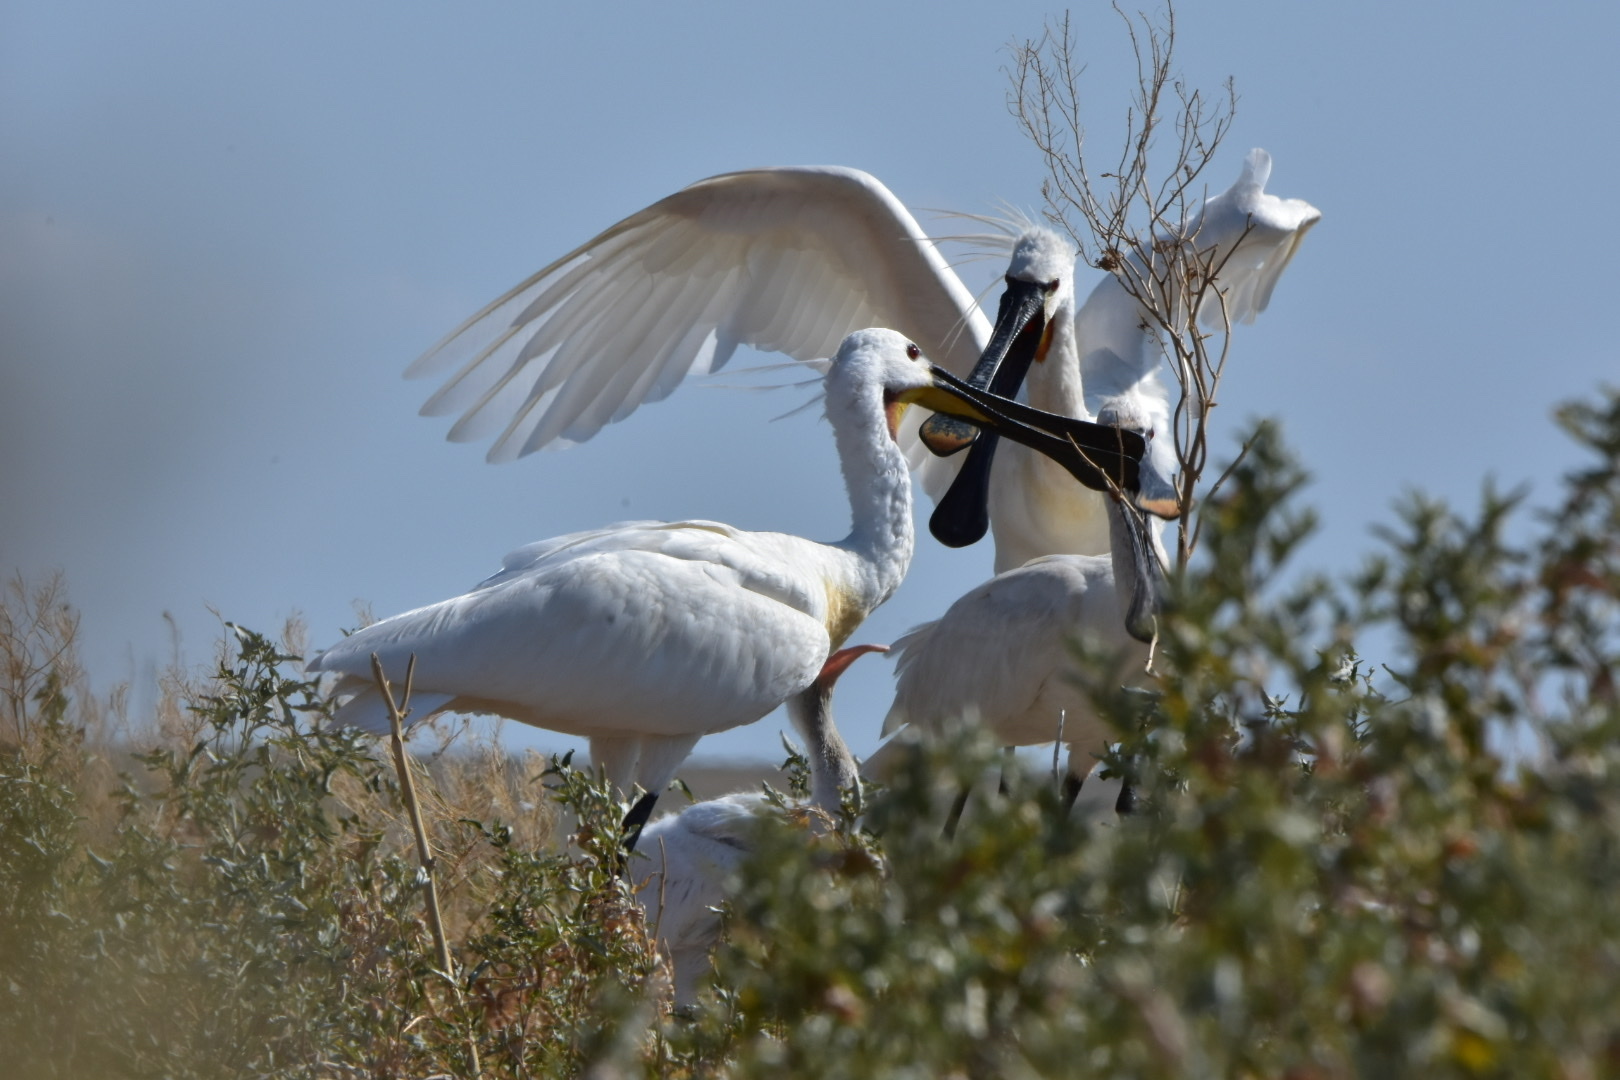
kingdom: Animalia
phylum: Chordata
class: Aves
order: Pelecaniformes
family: Threskiornithidae
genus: Platalea
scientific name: Platalea leucorodia
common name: Eurasian spoonbill
